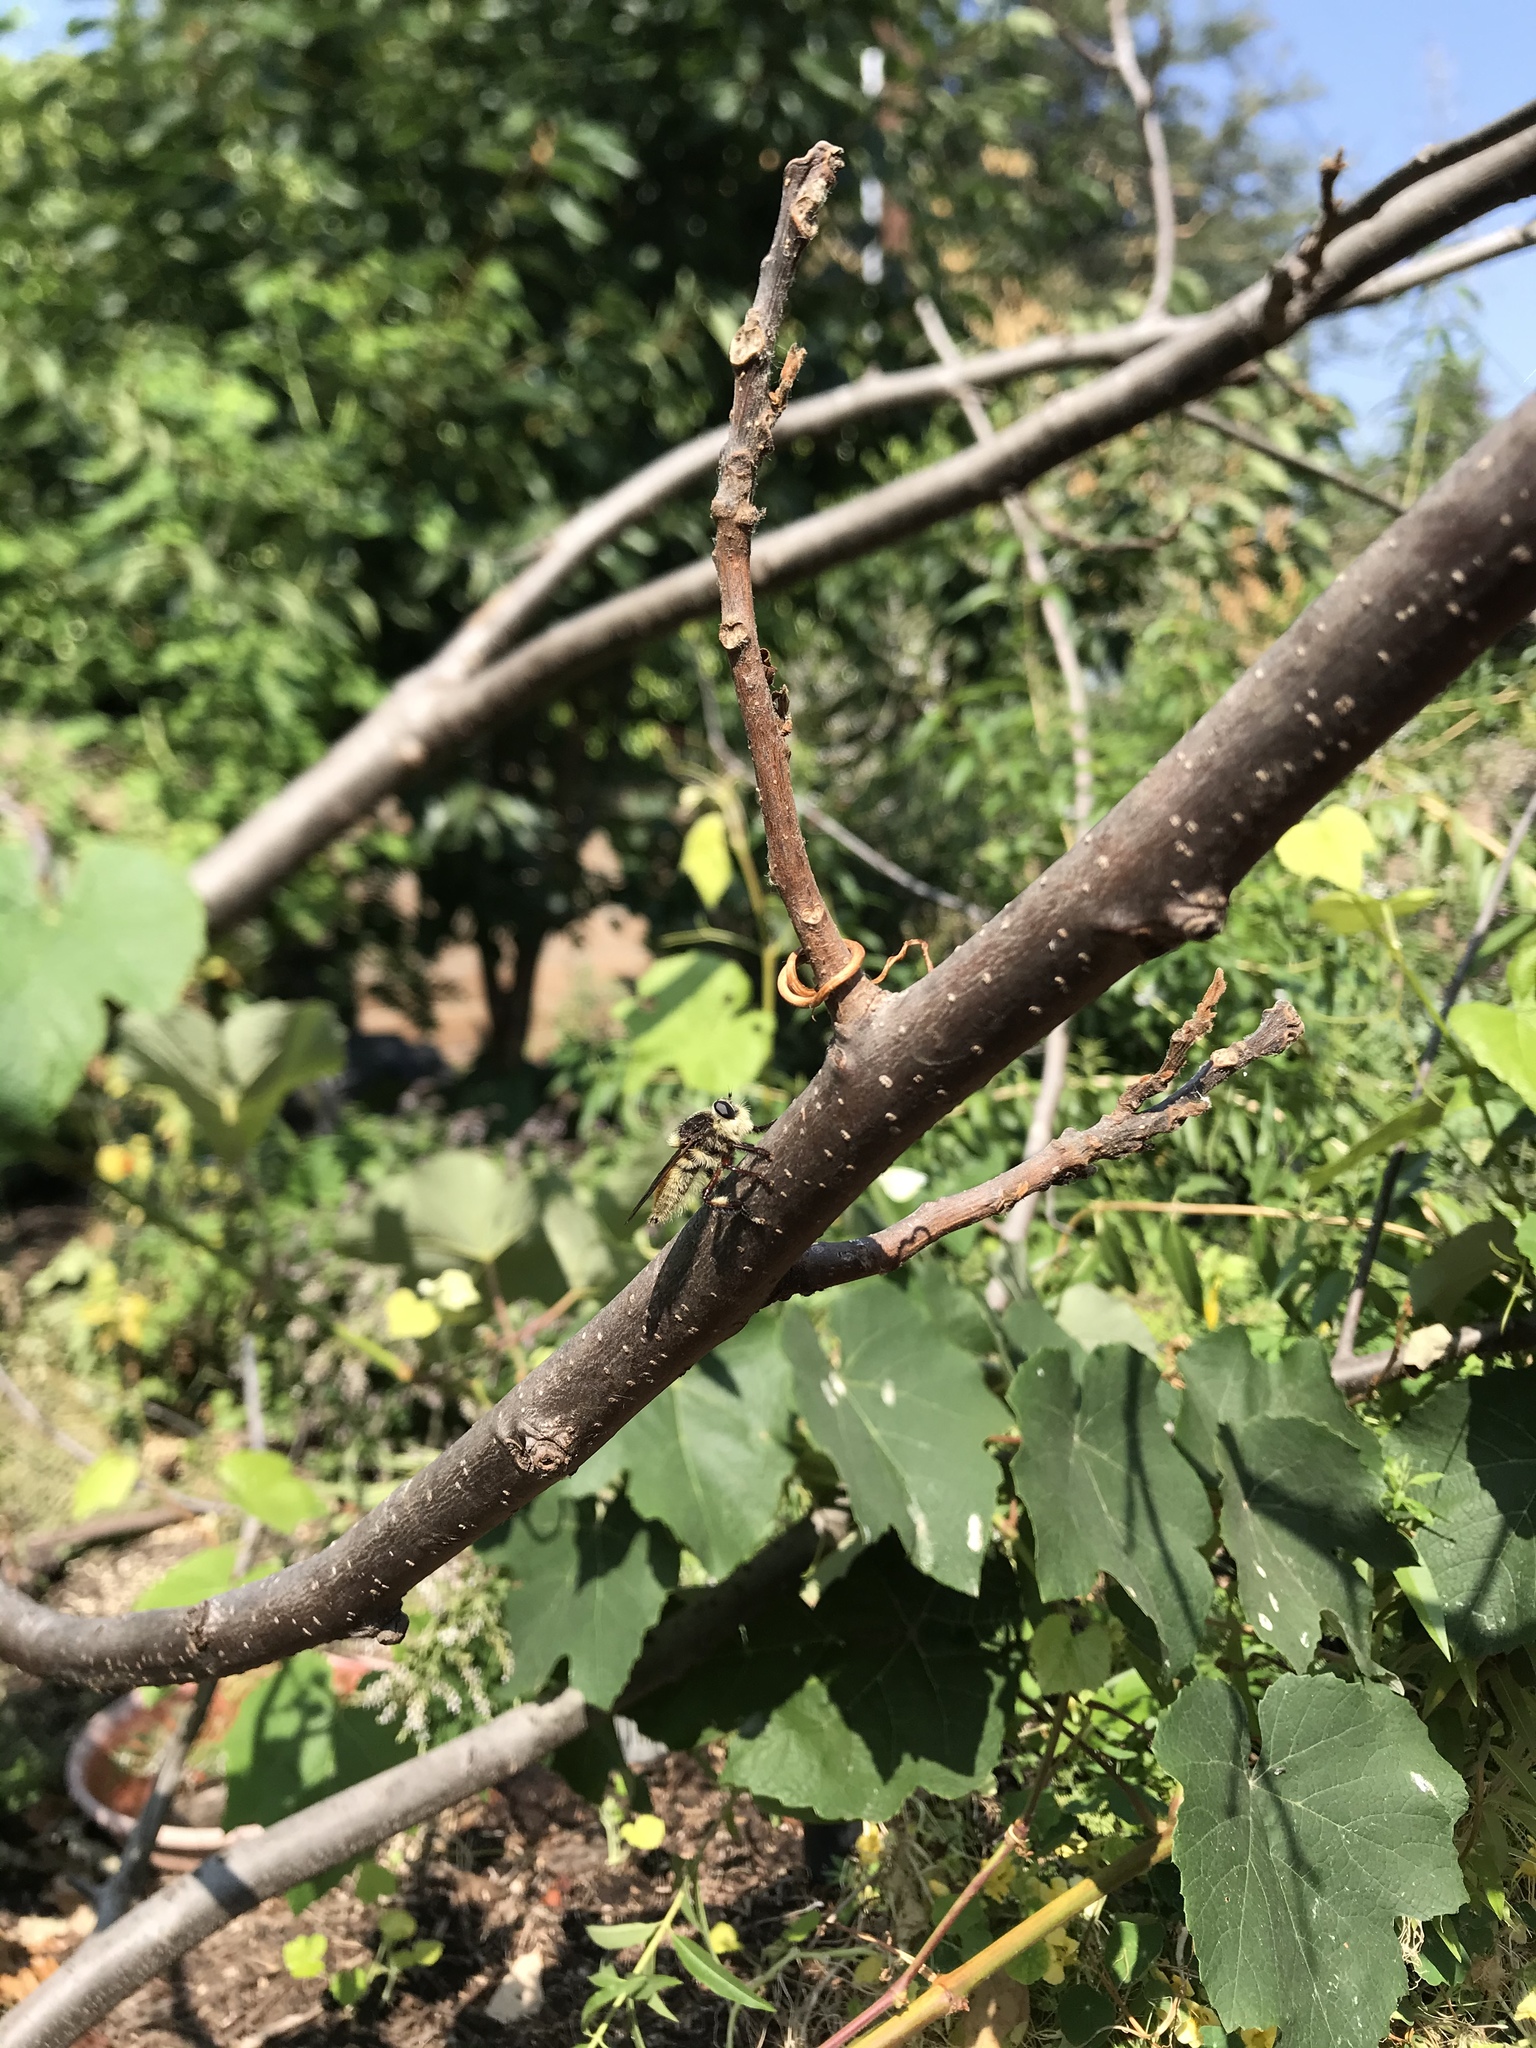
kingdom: Animalia
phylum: Arthropoda
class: Insecta
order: Diptera
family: Asilidae
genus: Mallophora
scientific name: Mallophora fautrix
